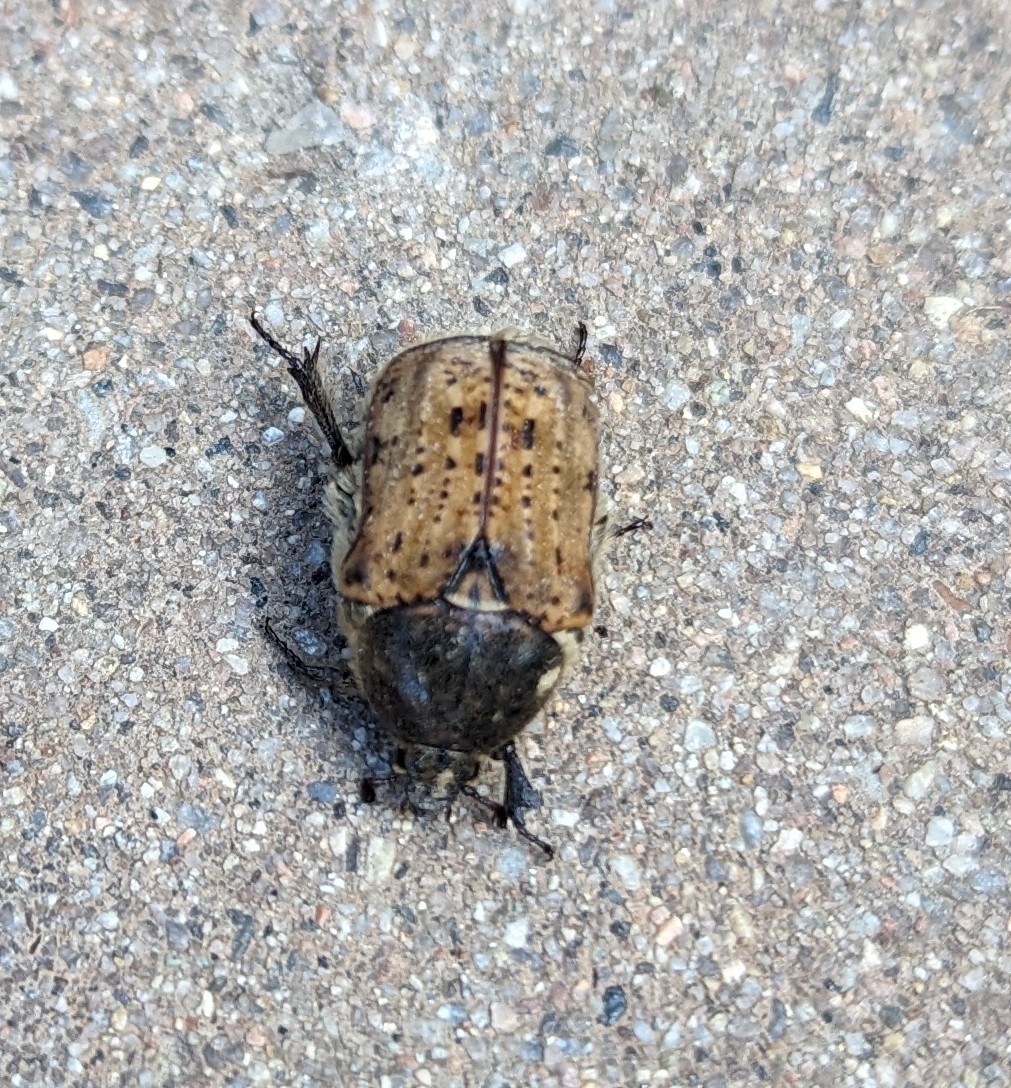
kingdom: Animalia
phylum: Arthropoda
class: Insecta
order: Coleoptera
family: Scarabaeidae
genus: Euphoria
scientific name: Euphoria inda
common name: Bumble flower beetle
